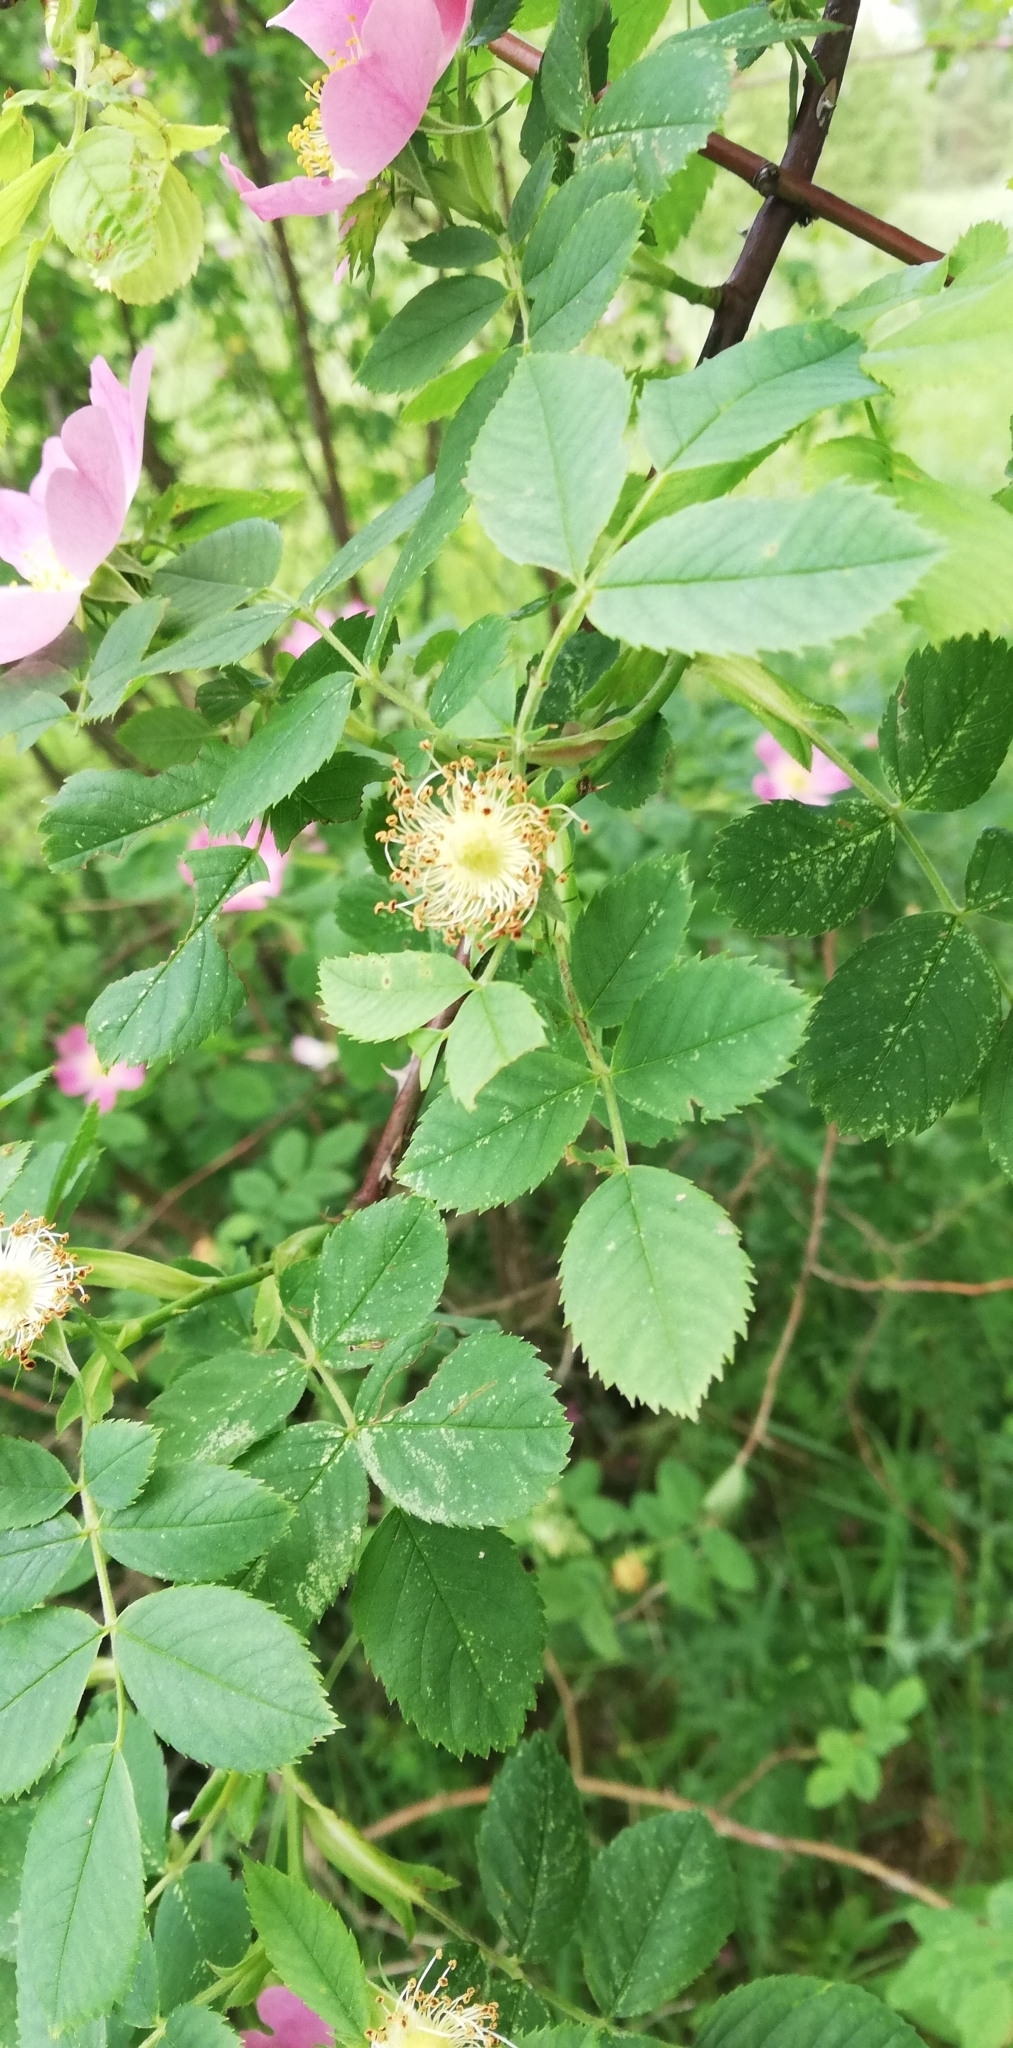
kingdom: Plantae
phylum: Tracheophyta
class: Magnoliopsida
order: Rosales
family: Rosaceae
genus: Rosa
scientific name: Rosa
